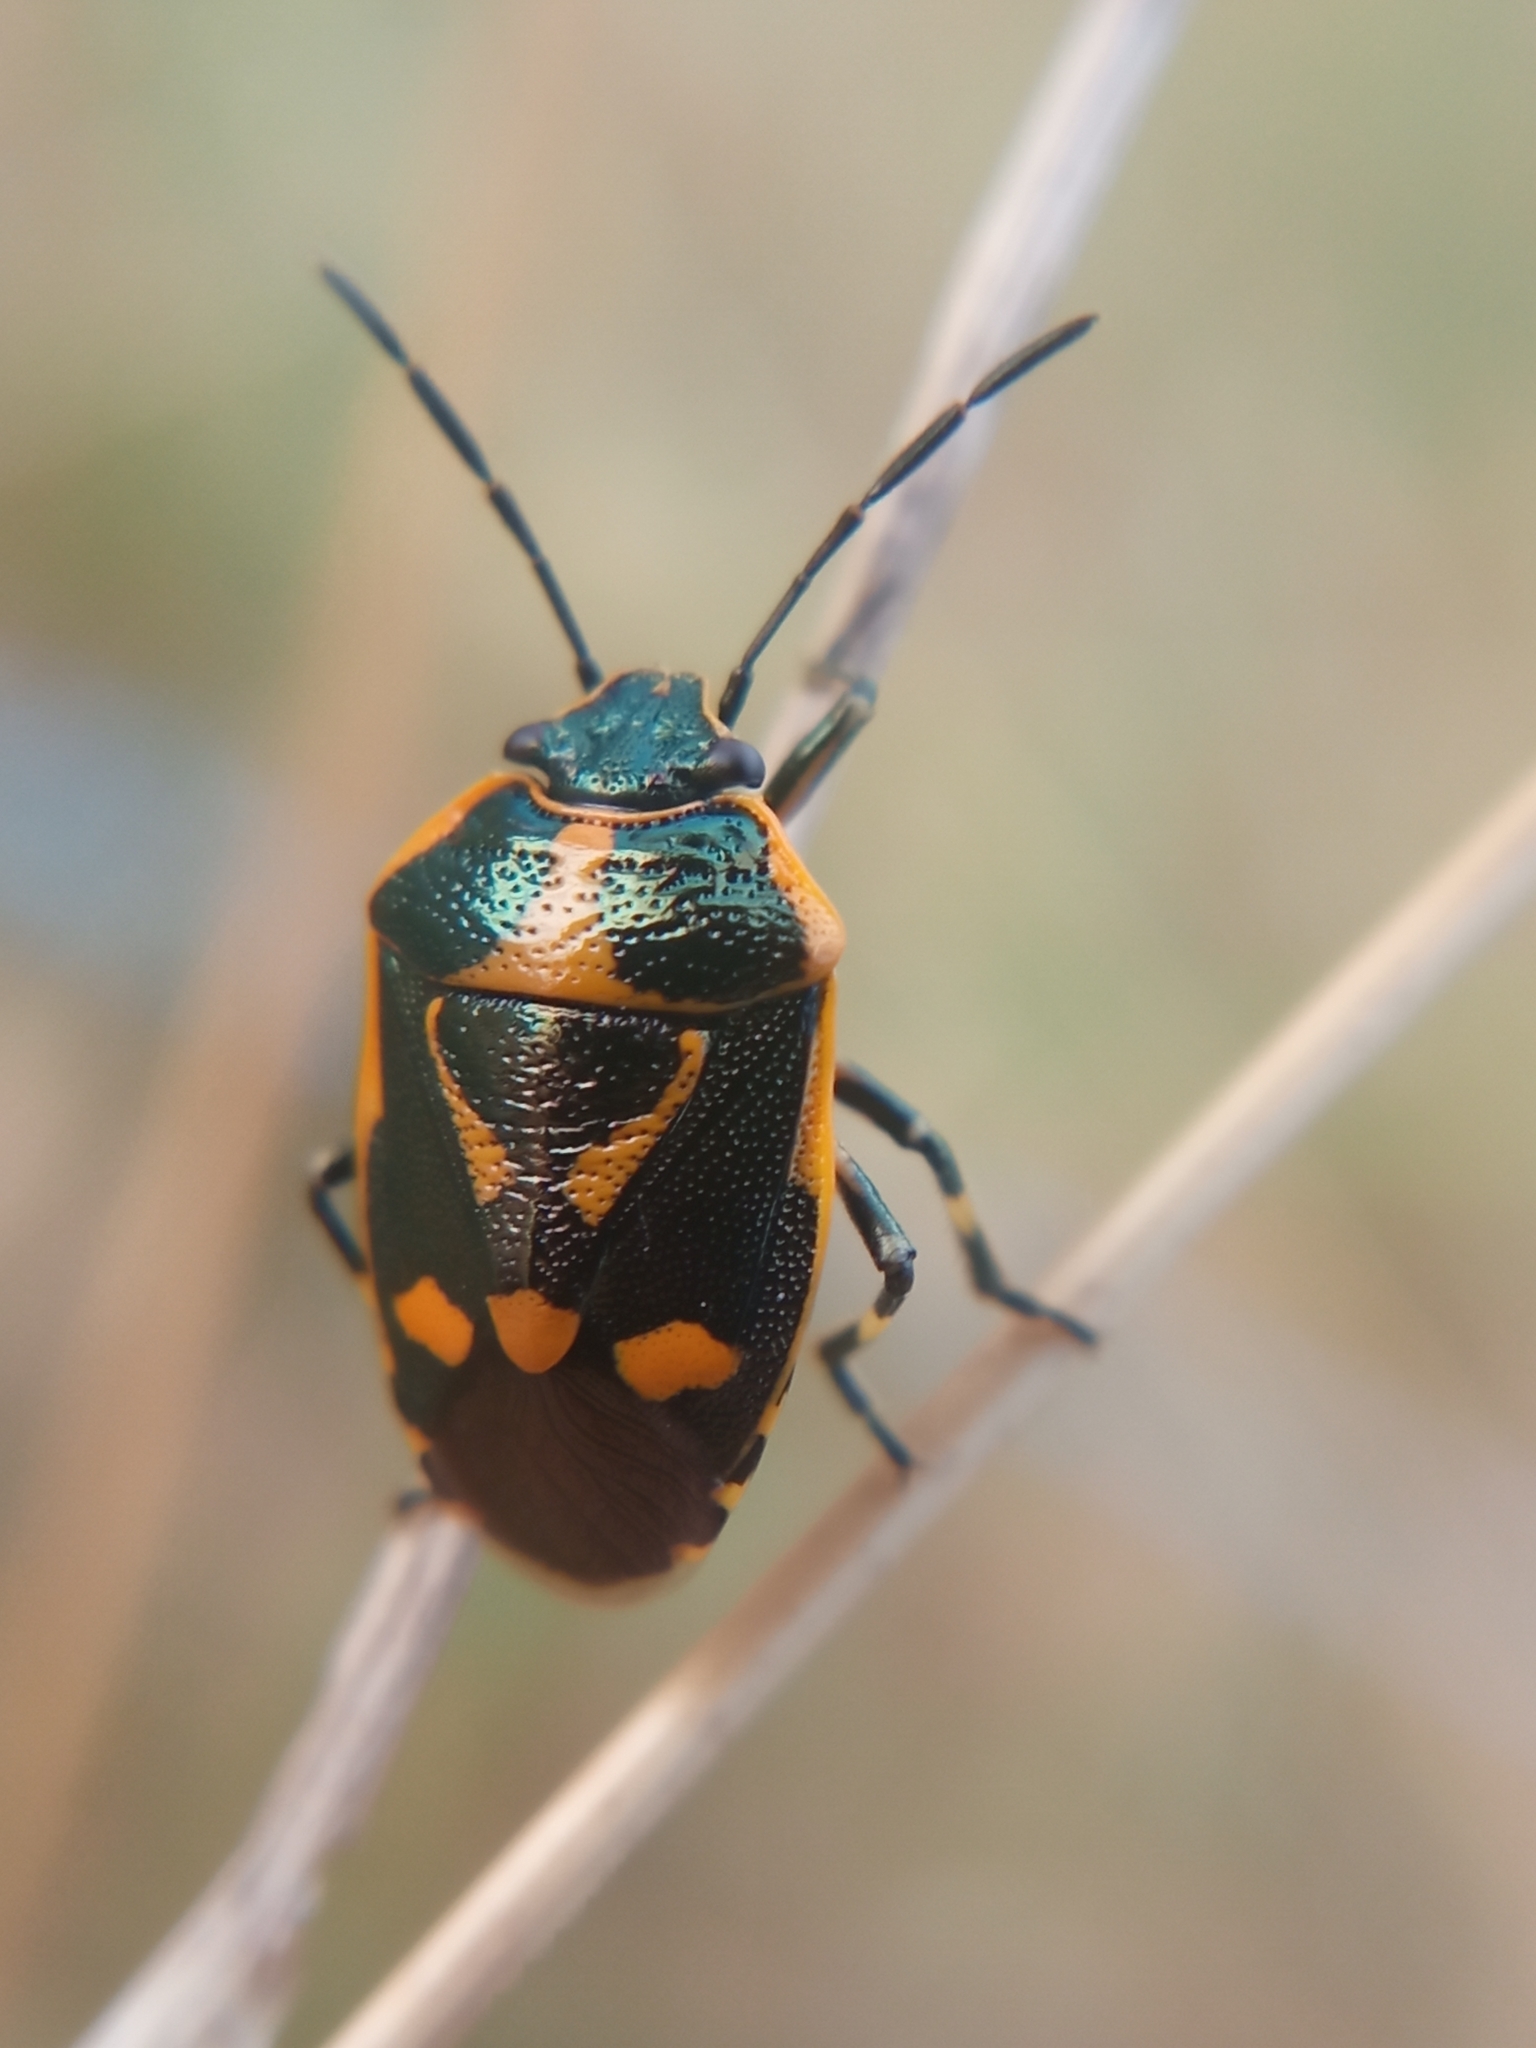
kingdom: Animalia
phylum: Arthropoda
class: Insecta
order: Hemiptera
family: Pentatomidae
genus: Eurydema
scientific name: Eurydema oleracea
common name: Cabbage bug
